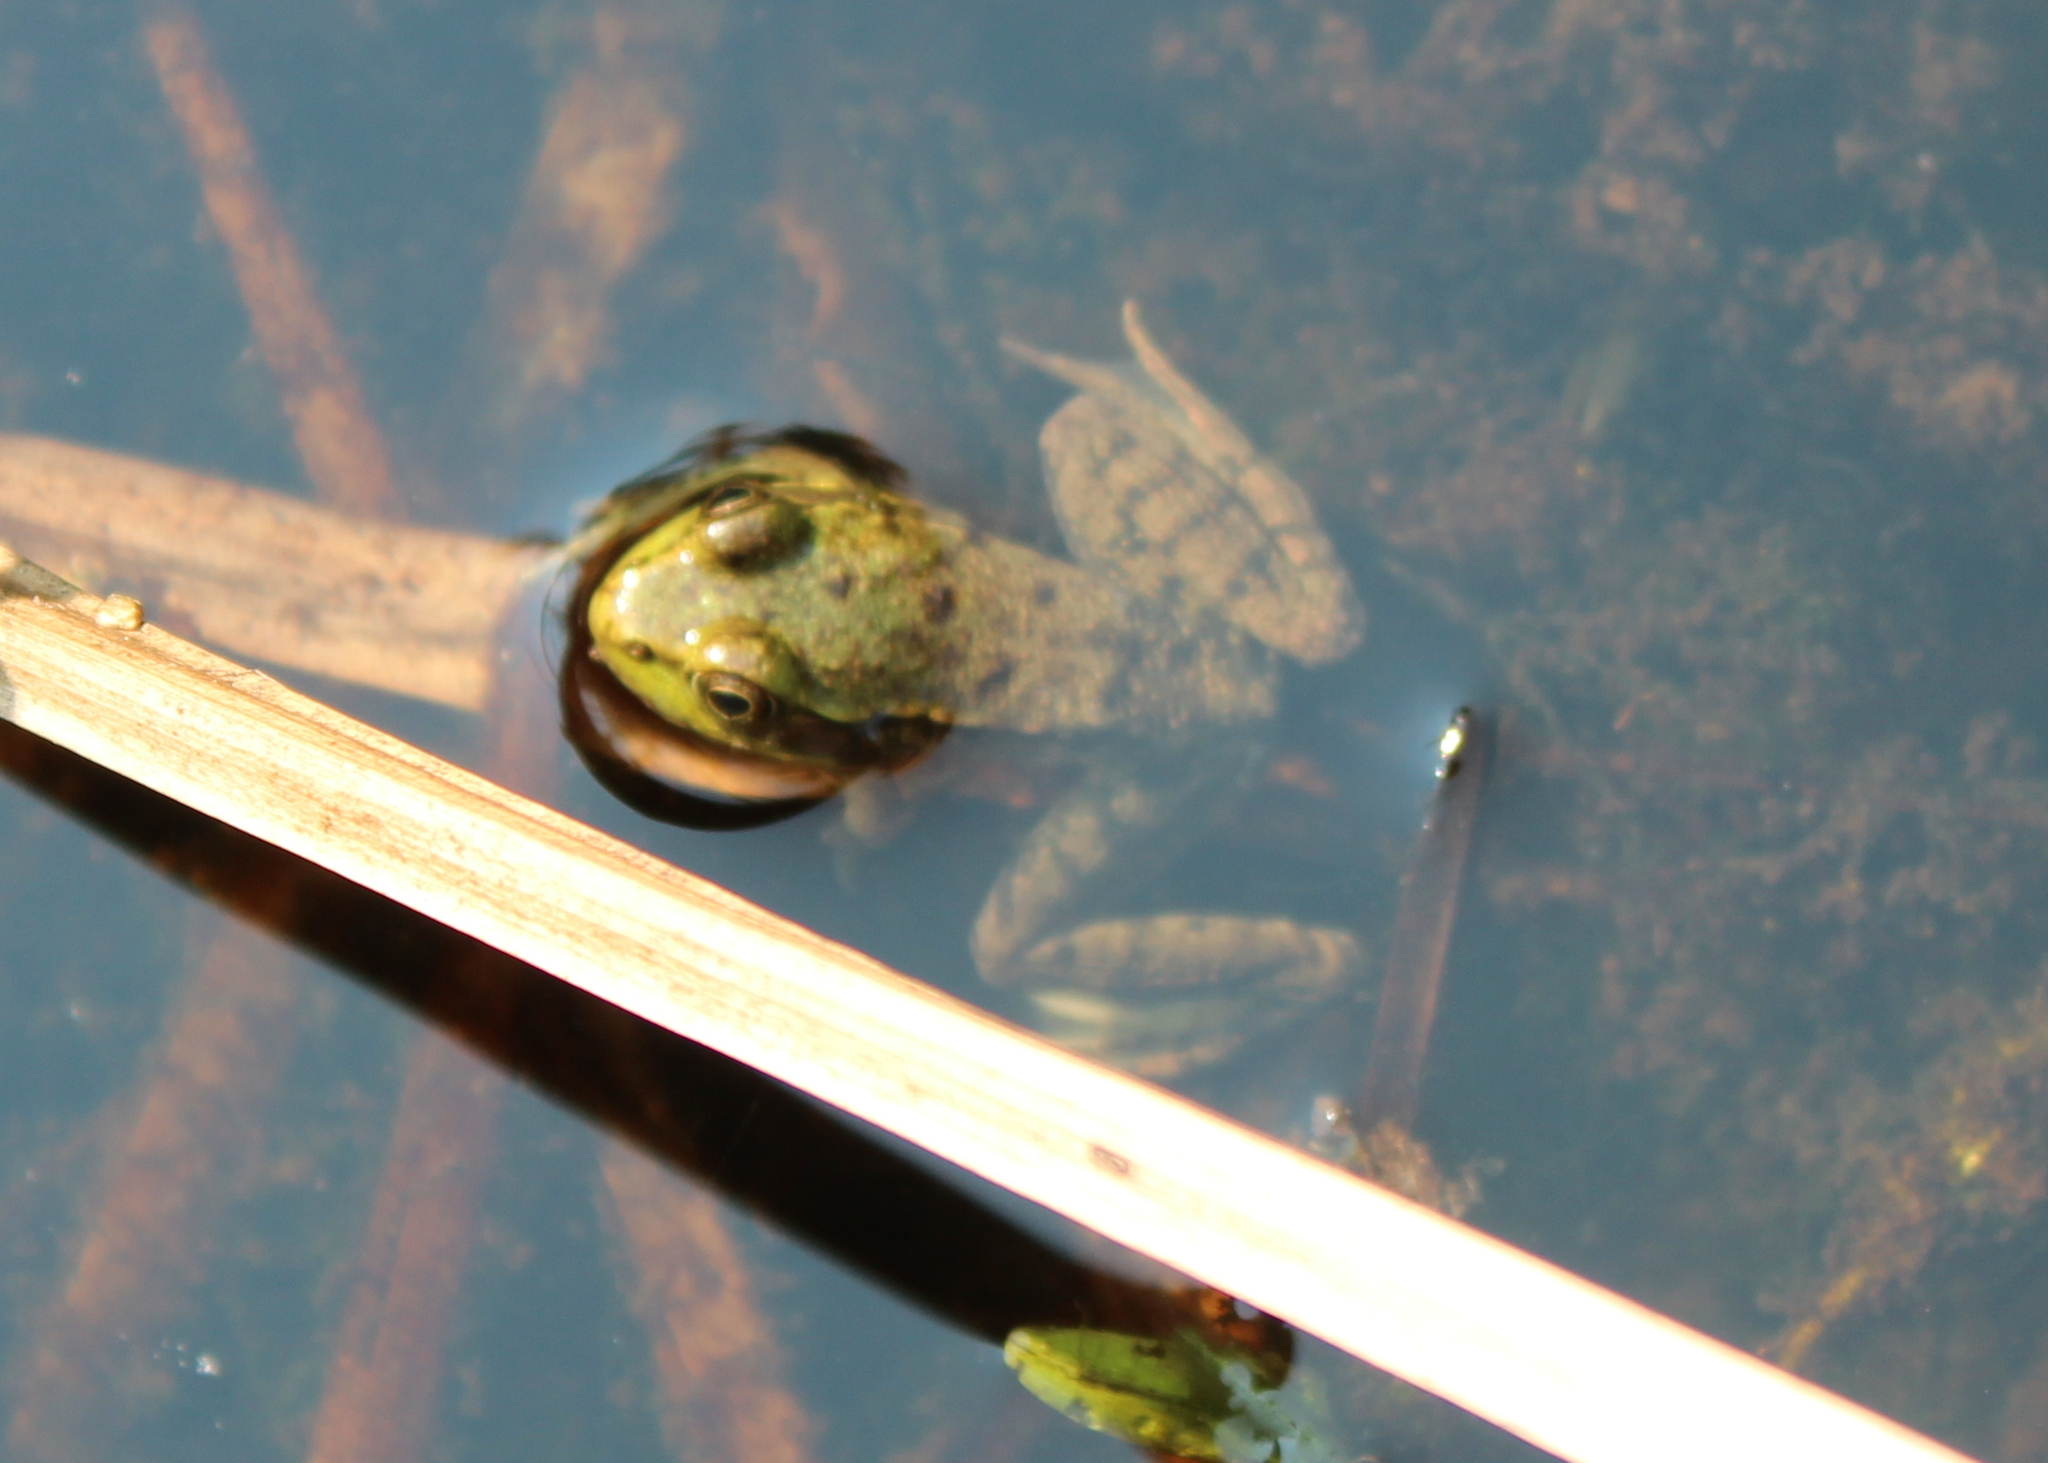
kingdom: Animalia
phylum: Chordata
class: Amphibia
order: Anura
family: Ranidae
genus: Lithobates
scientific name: Lithobates clamitans
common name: Green frog
